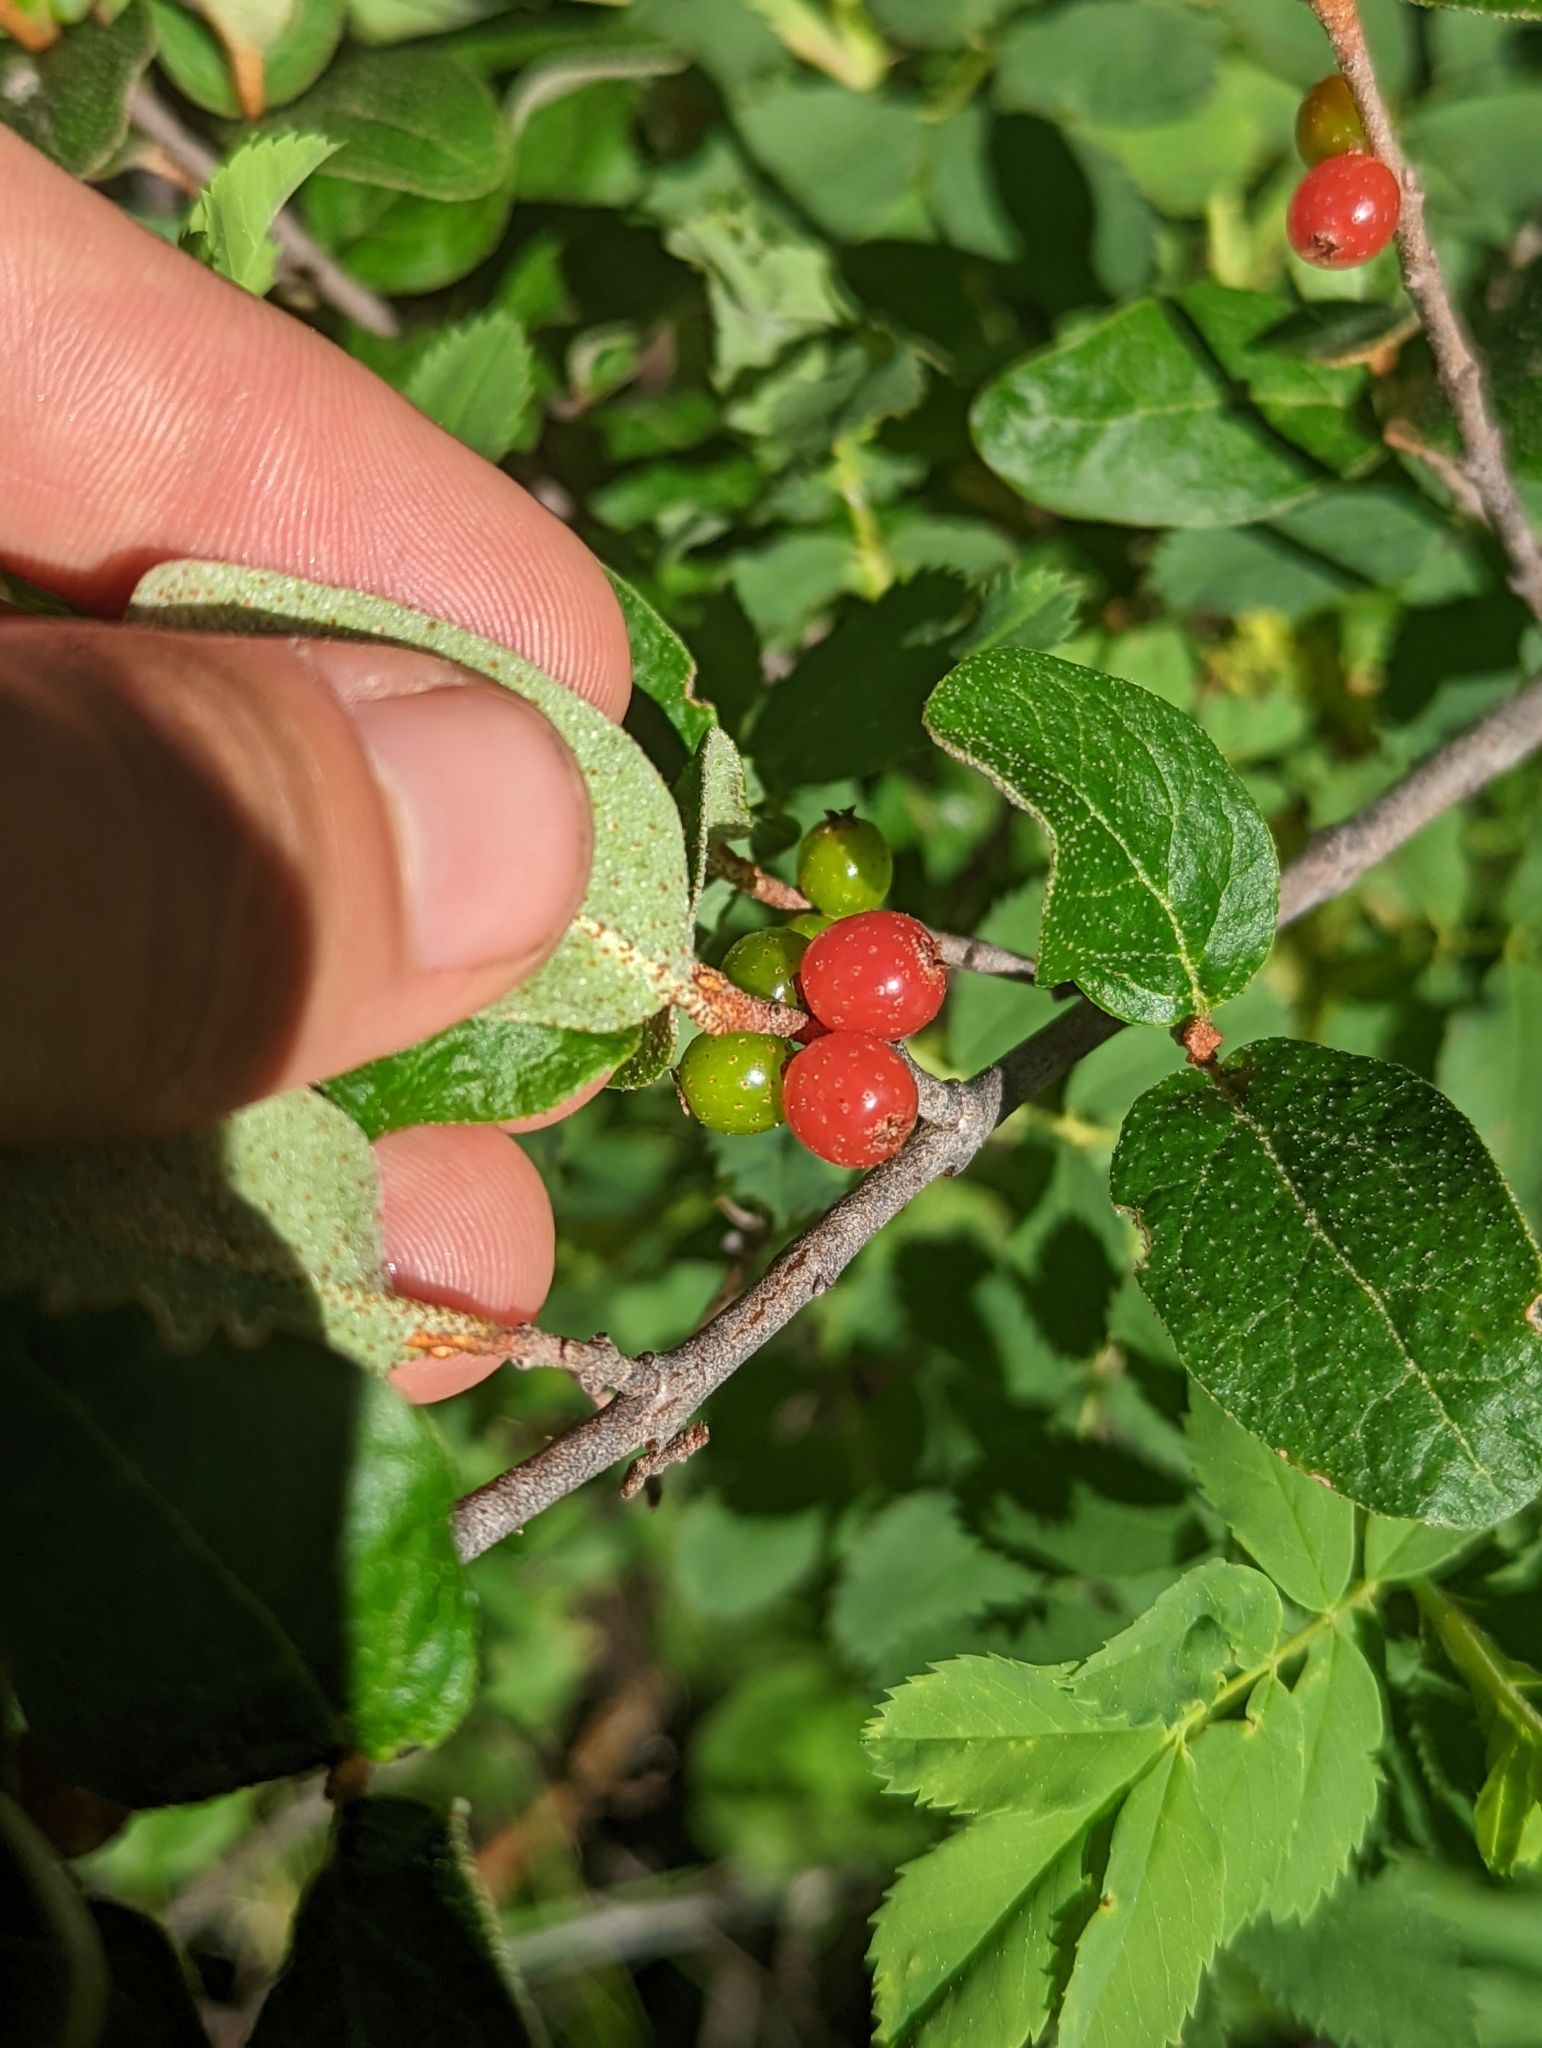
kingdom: Plantae
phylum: Tracheophyta
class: Magnoliopsida
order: Rosales
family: Elaeagnaceae
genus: Shepherdia
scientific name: Shepherdia canadensis
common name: Soapberry
